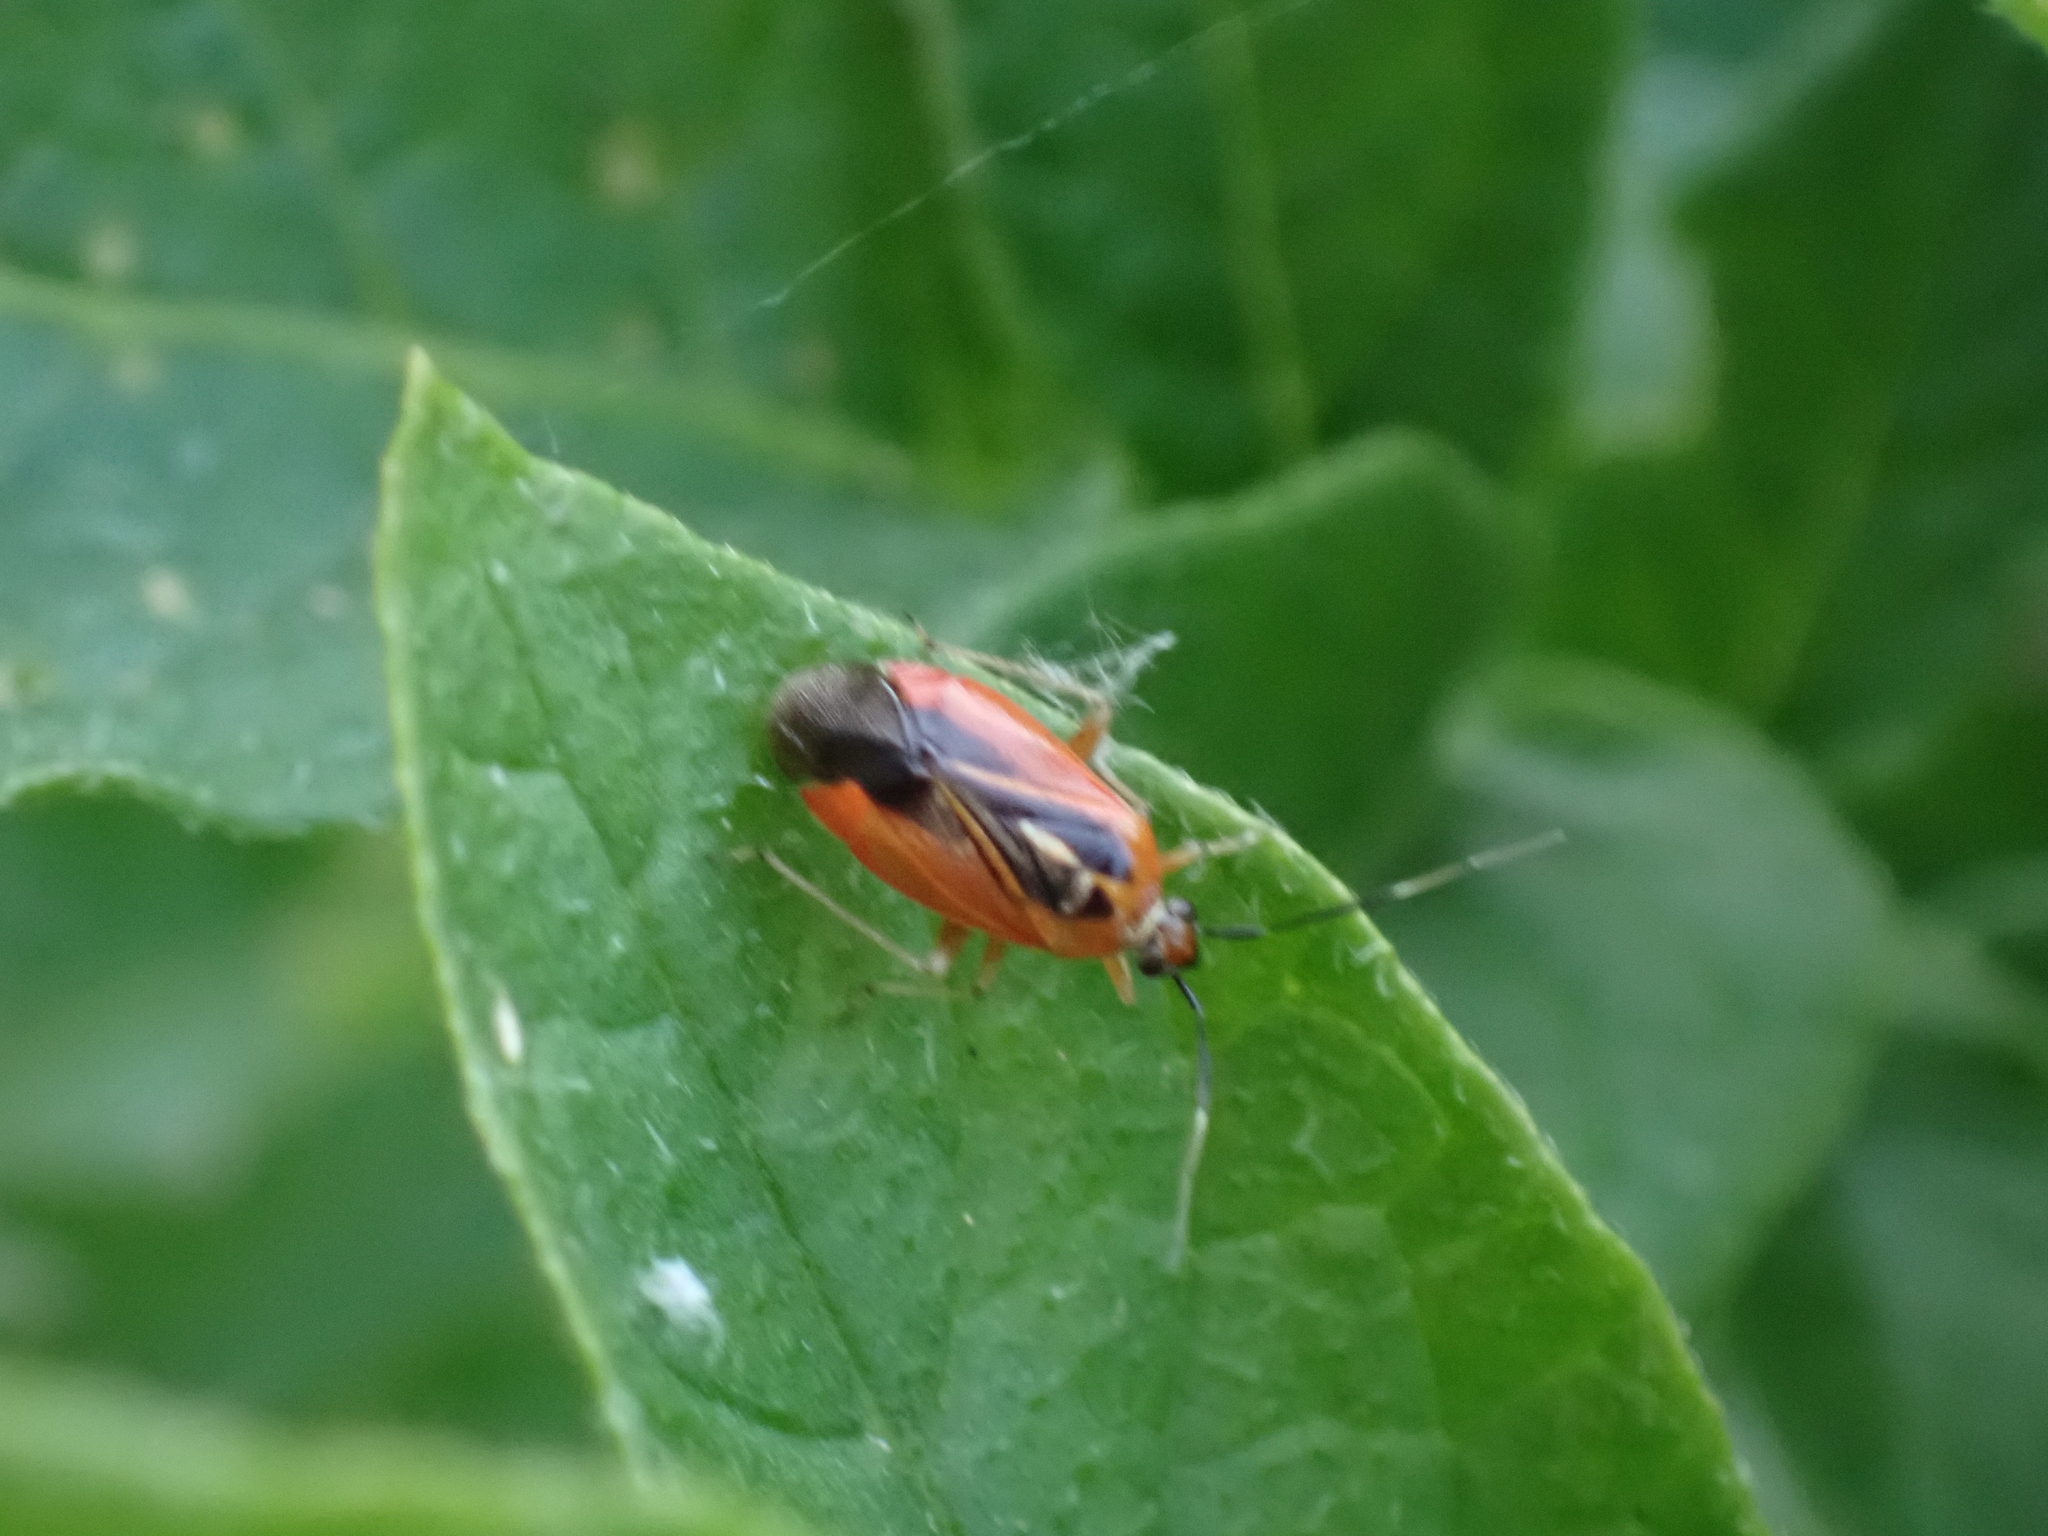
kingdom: Animalia
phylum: Arthropoda
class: Insecta
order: Hemiptera
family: Miridae
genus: Metriorrhynchomiris
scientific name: Metriorrhynchomiris dislocatus
